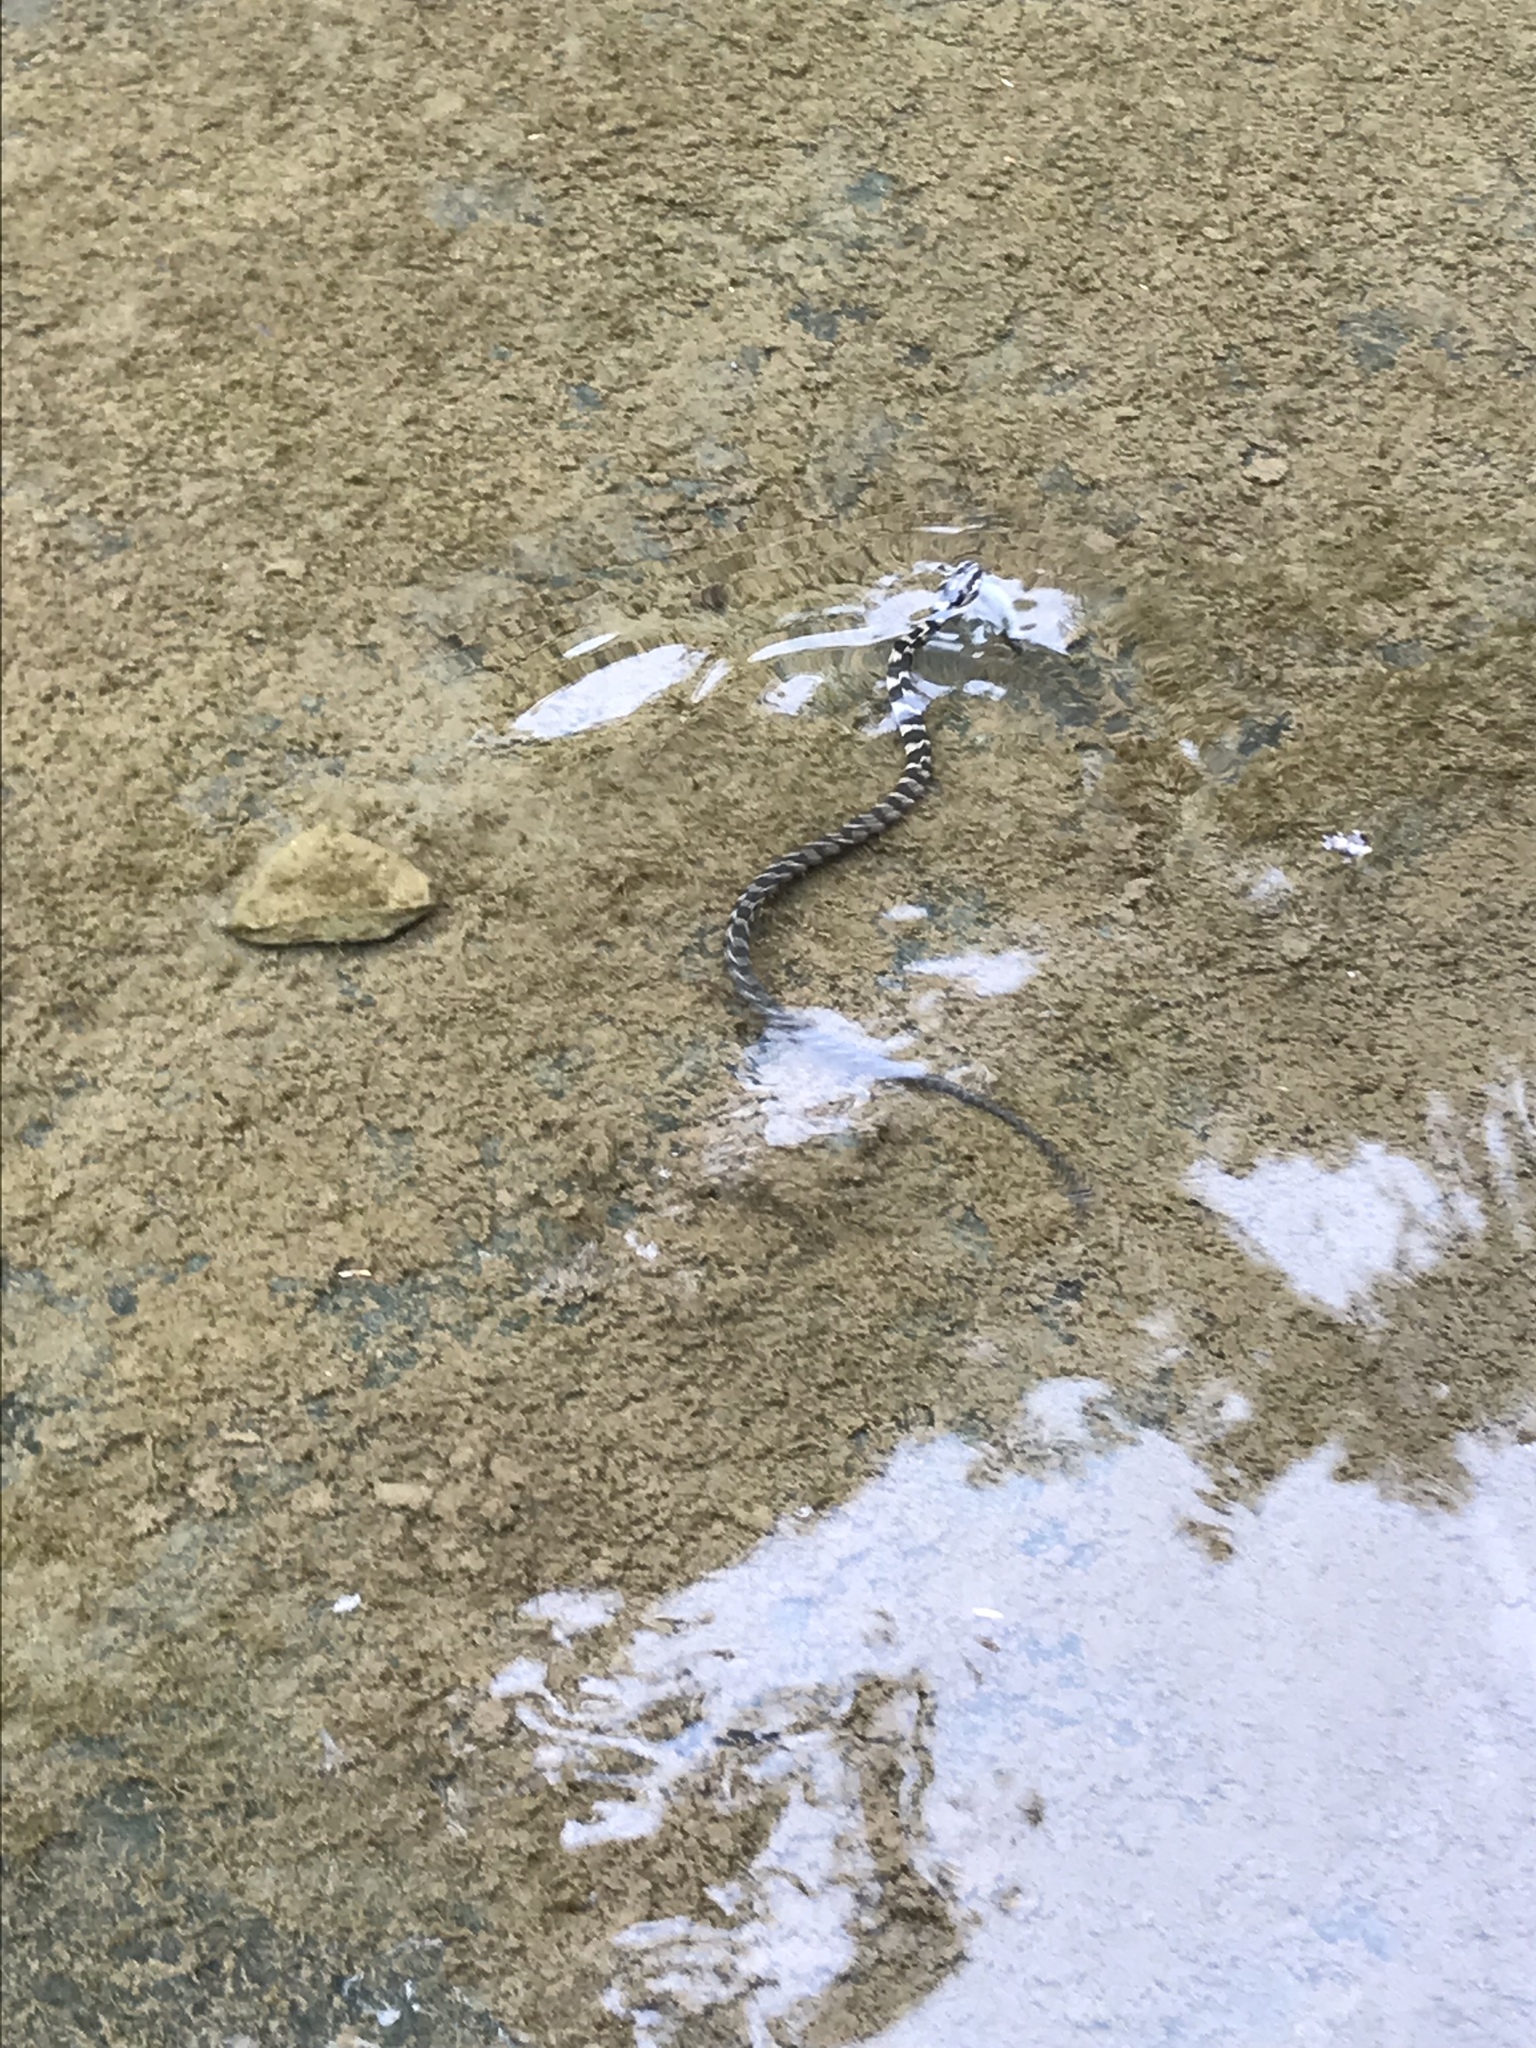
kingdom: Animalia
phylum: Chordata
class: Squamata
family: Colubridae
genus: Nerodia
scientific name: Nerodia sipedon
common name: Northern water snake
